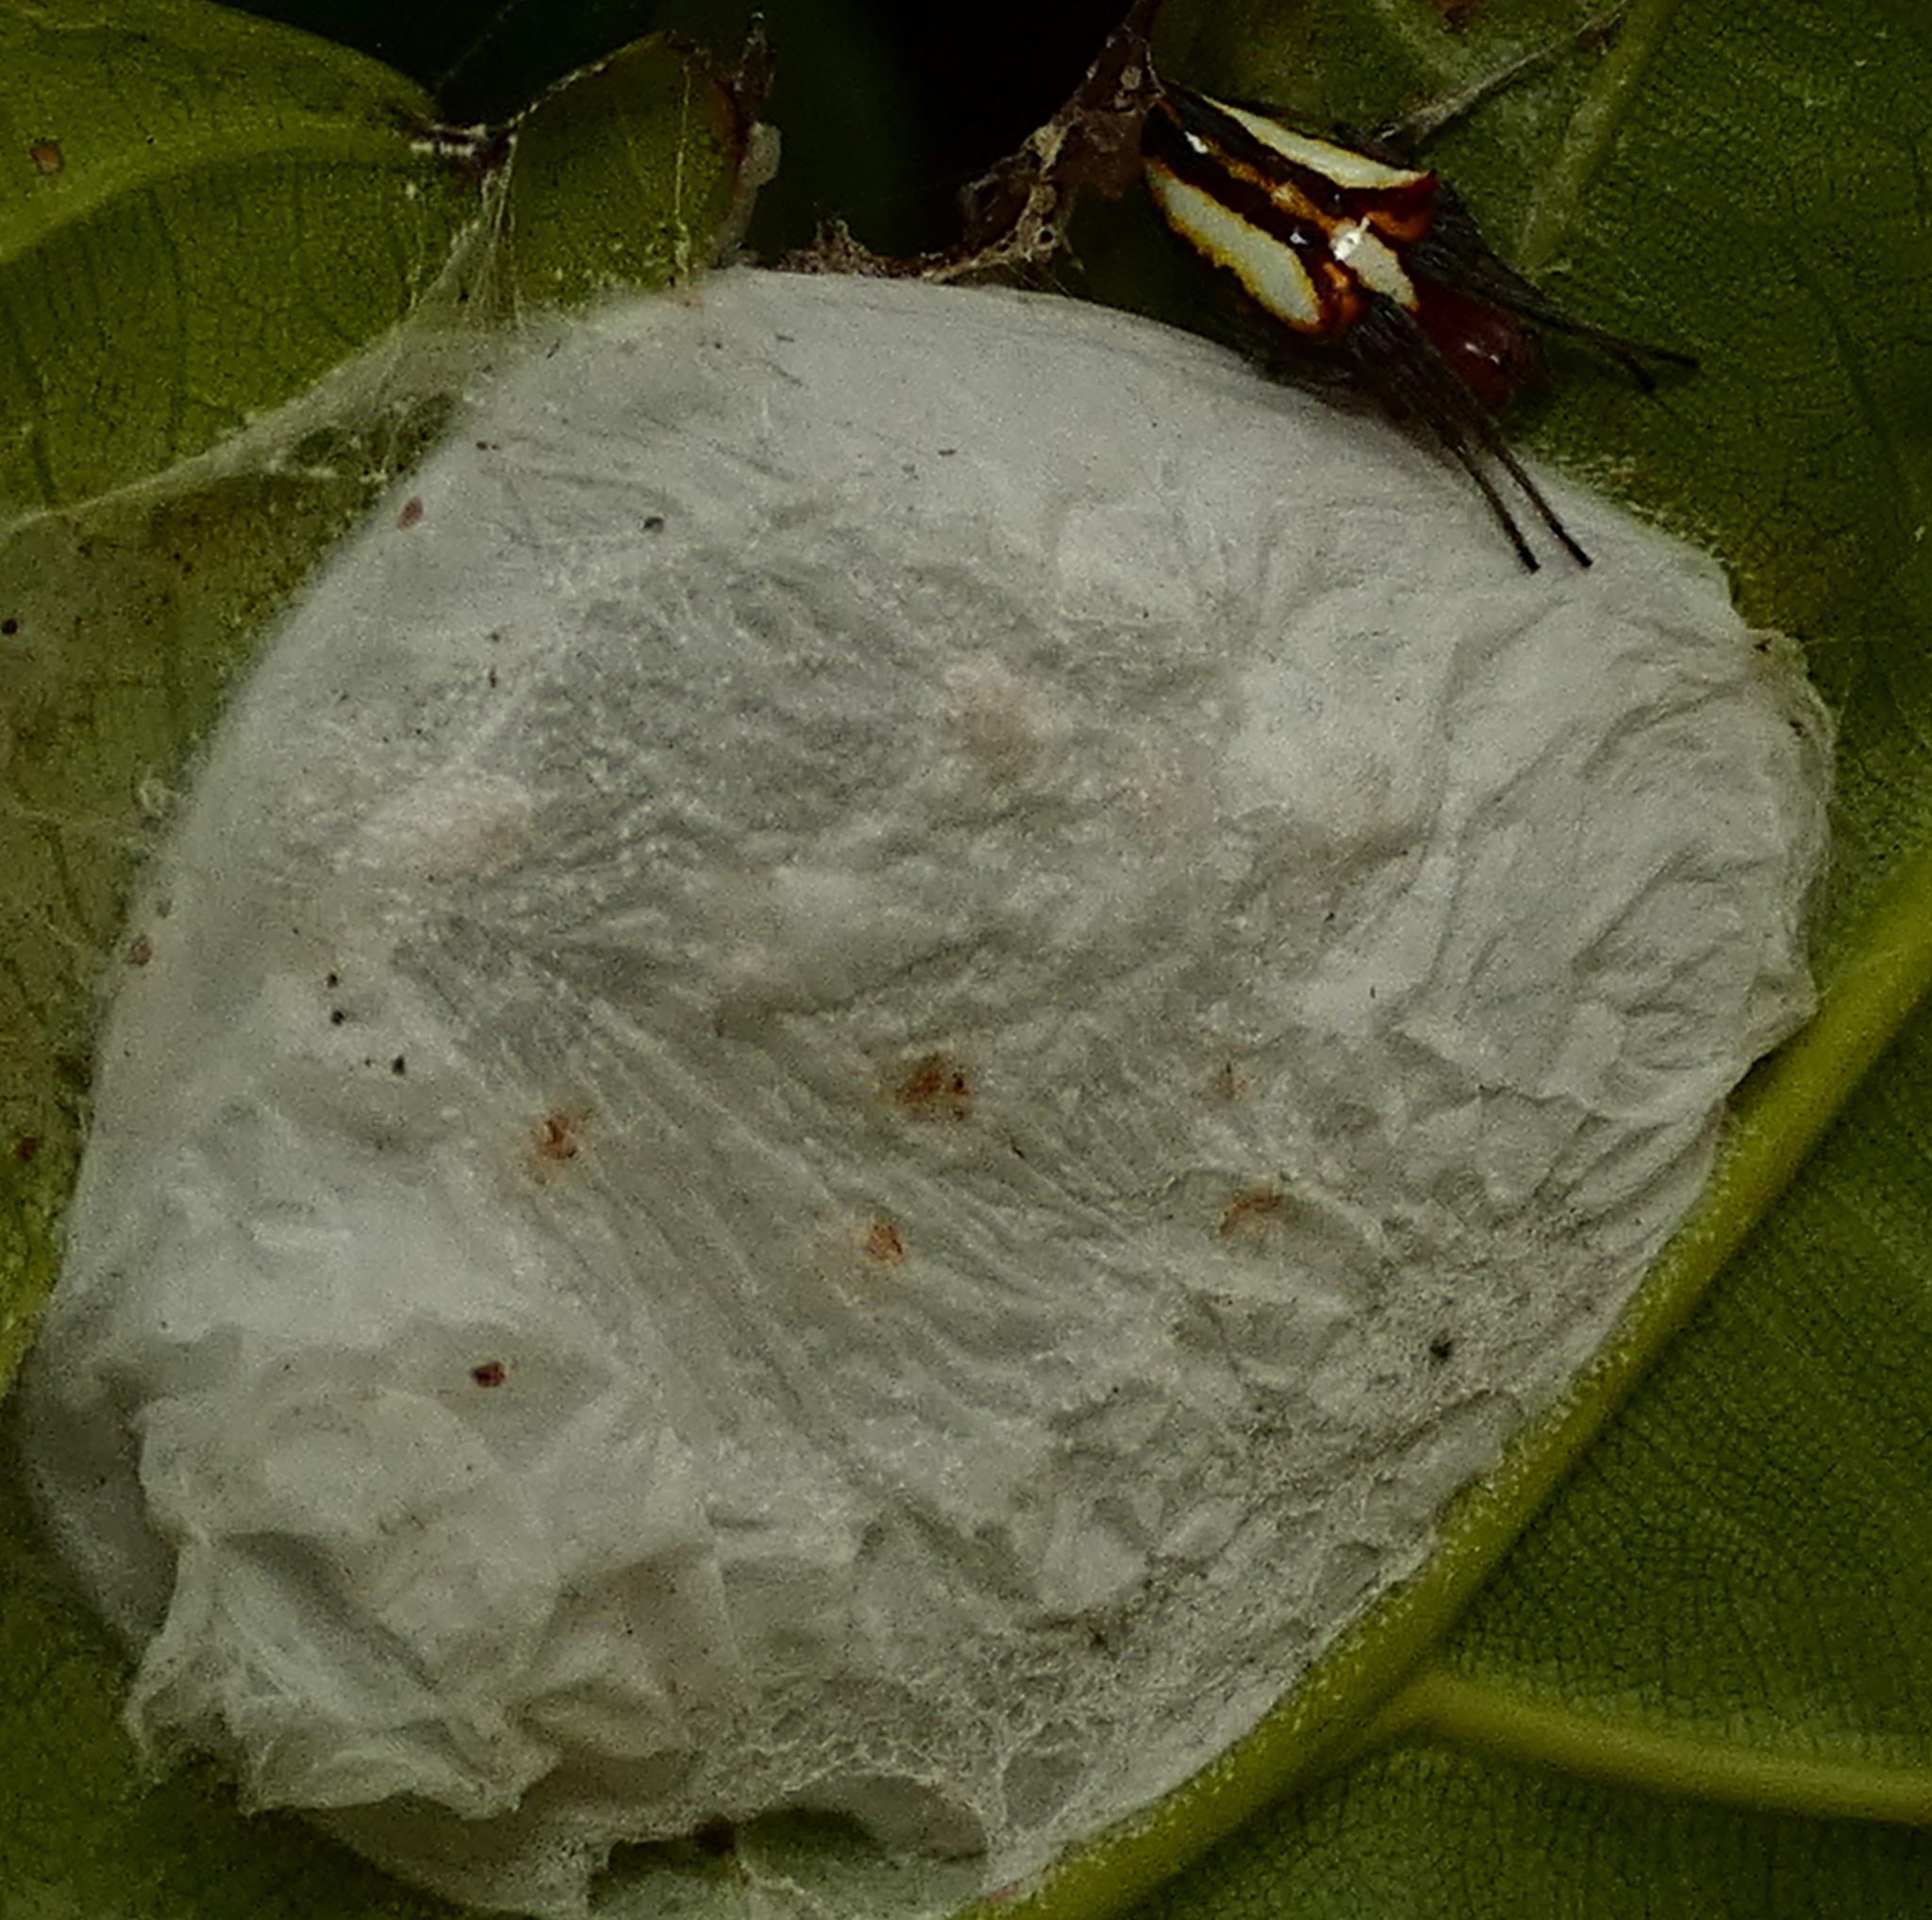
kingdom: Animalia
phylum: Arthropoda
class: Arachnida
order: Araneae
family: Araneidae
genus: Alpaida
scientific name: Alpaida bicornuta
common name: Orb weavers
